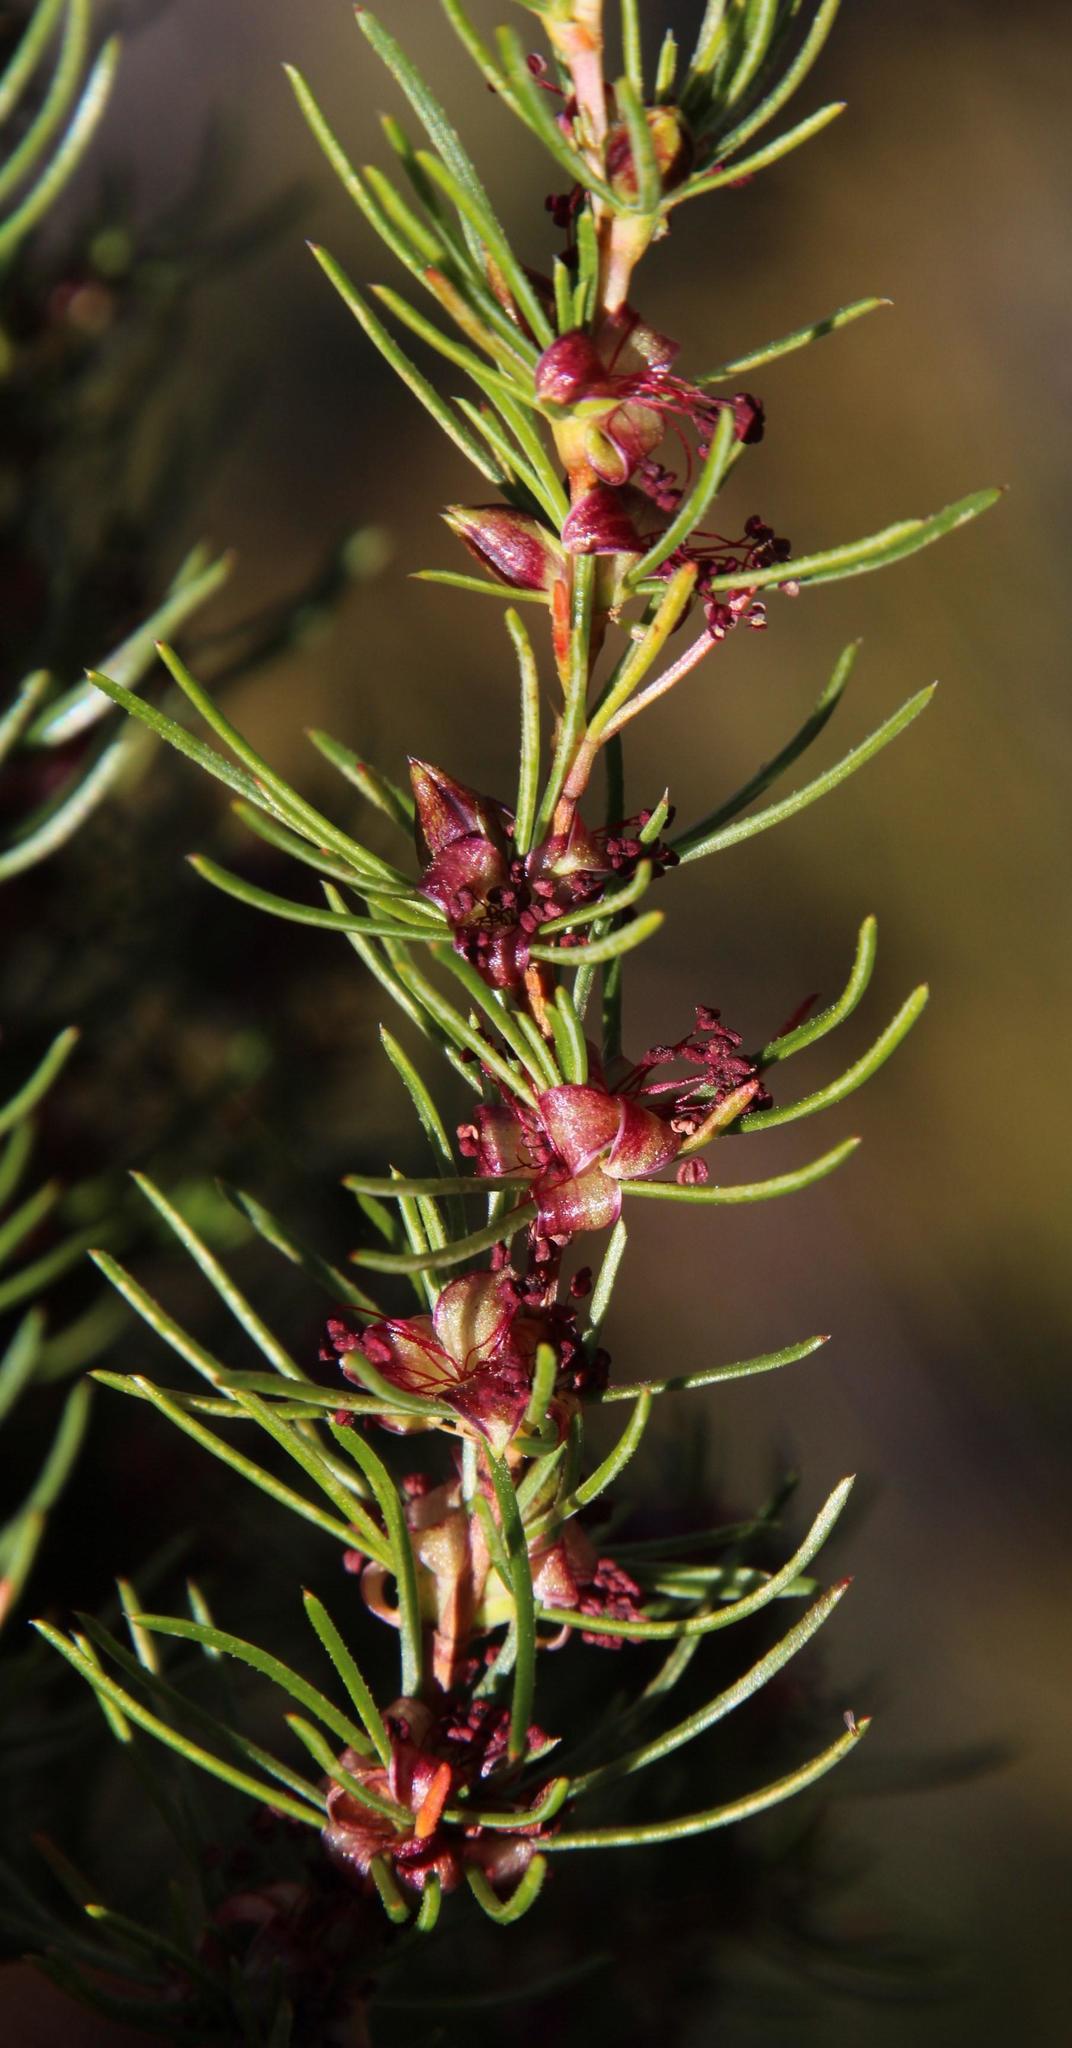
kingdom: Plantae
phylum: Tracheophyta
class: Magnoliopsida
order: Rosales
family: Rosaceae
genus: Cliffortia
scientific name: Cliffortia burchellii
